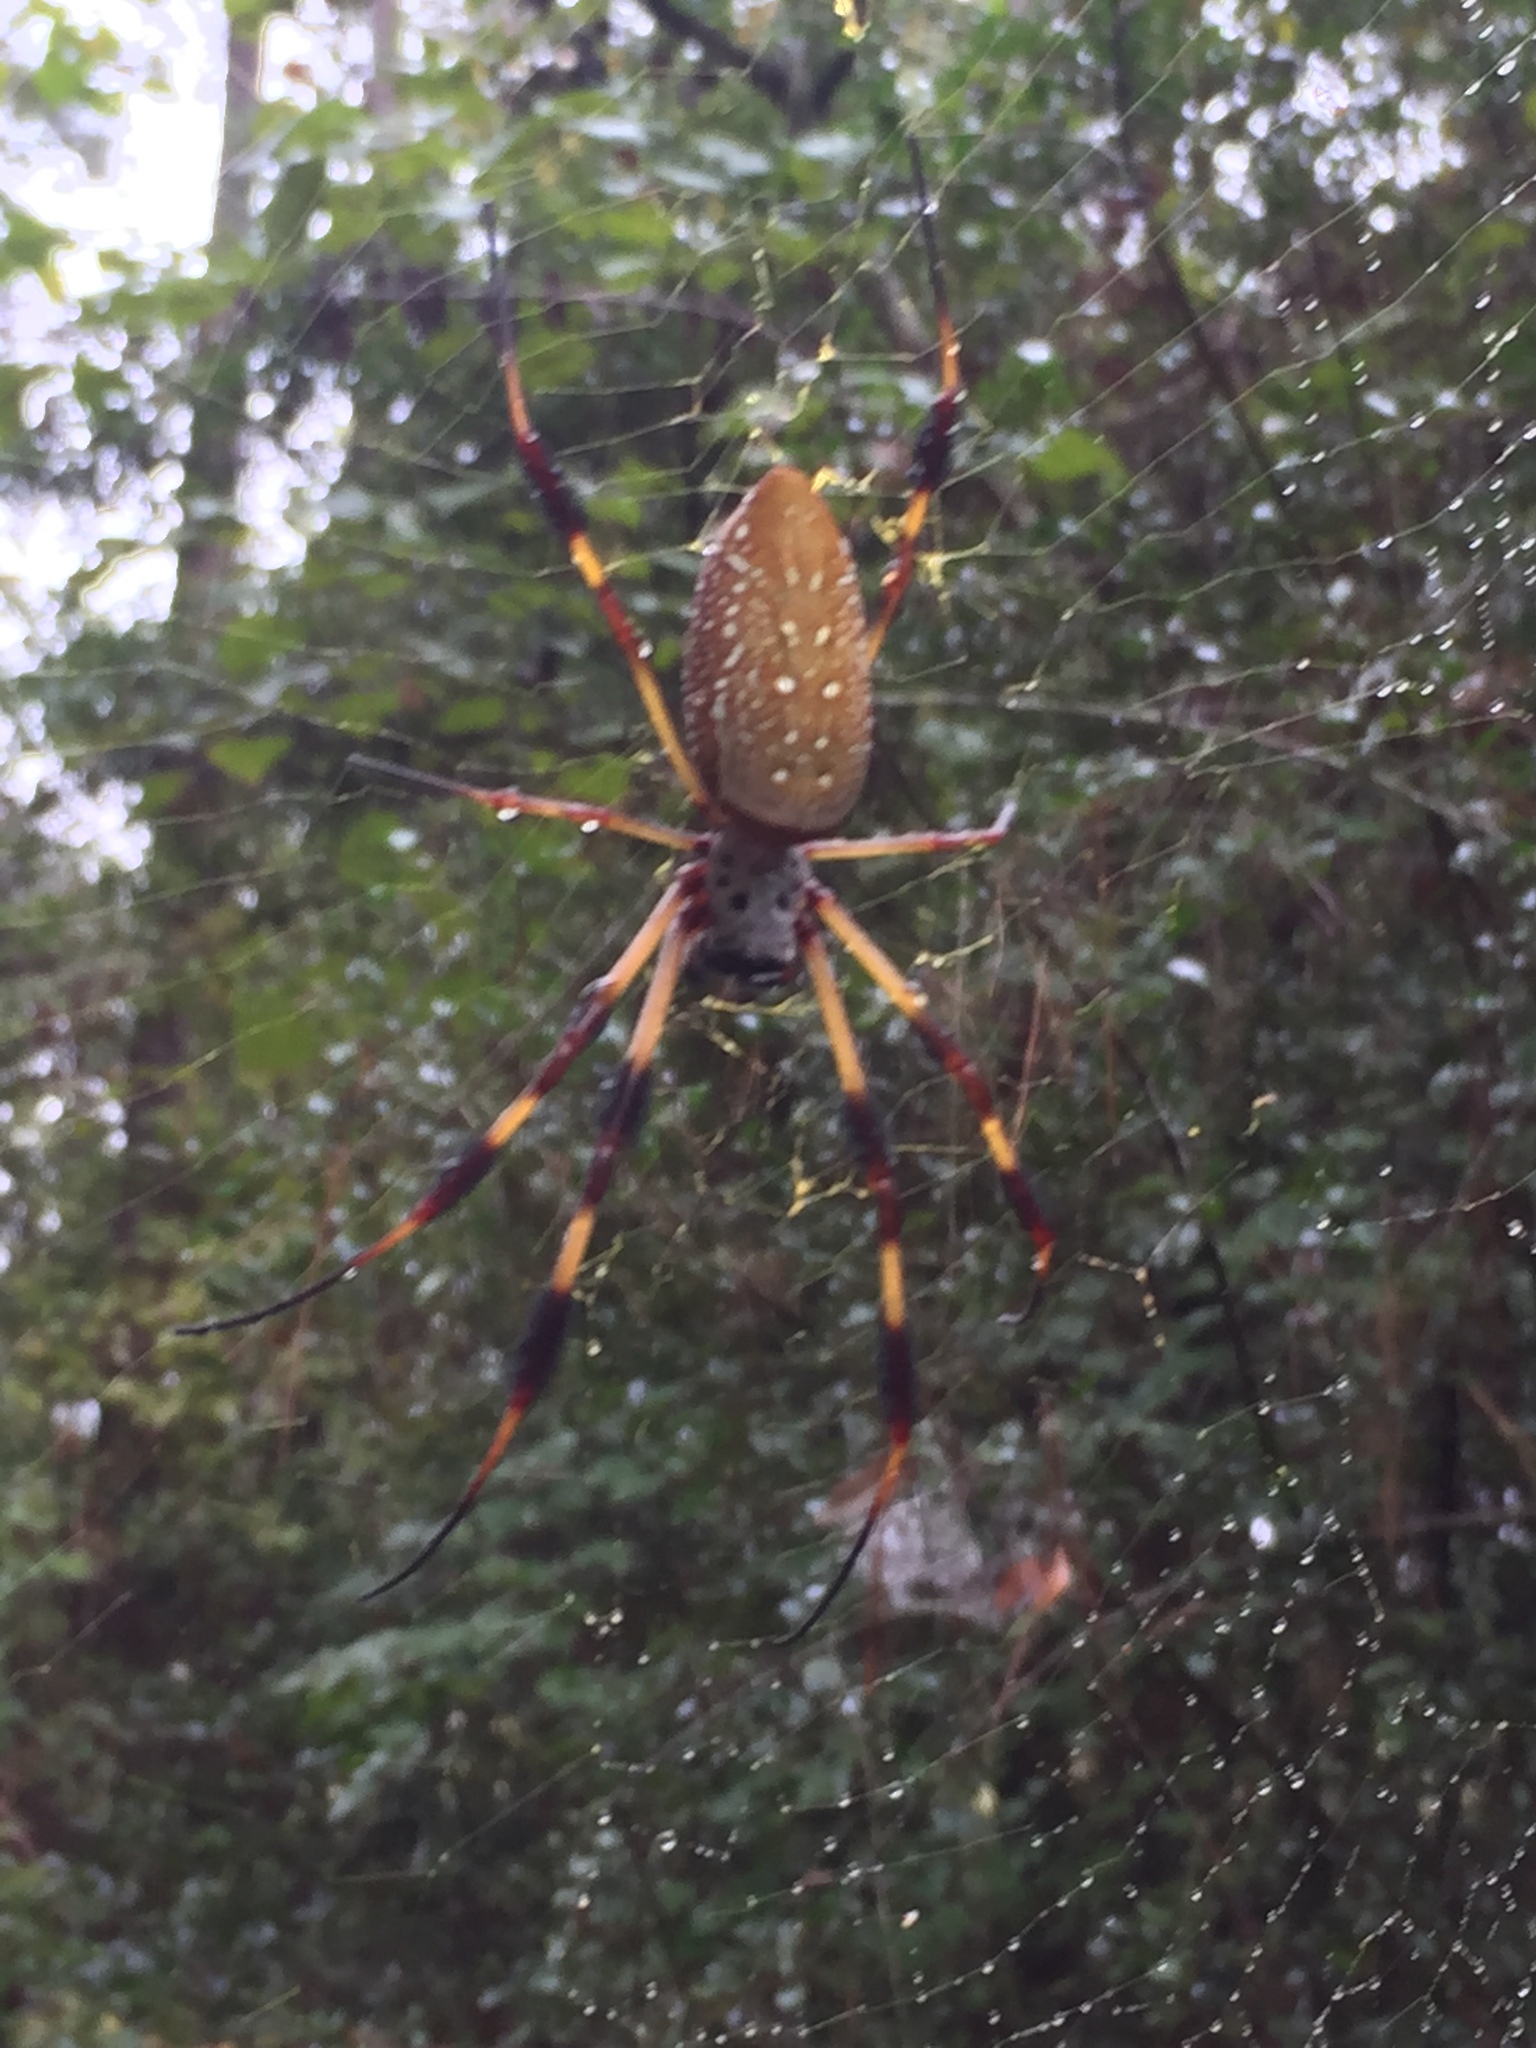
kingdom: Animalia
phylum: Arthropoda
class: Arachnida
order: Araneae
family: Araneidae
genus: Trichonephila
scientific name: Trichonephila clavipes
